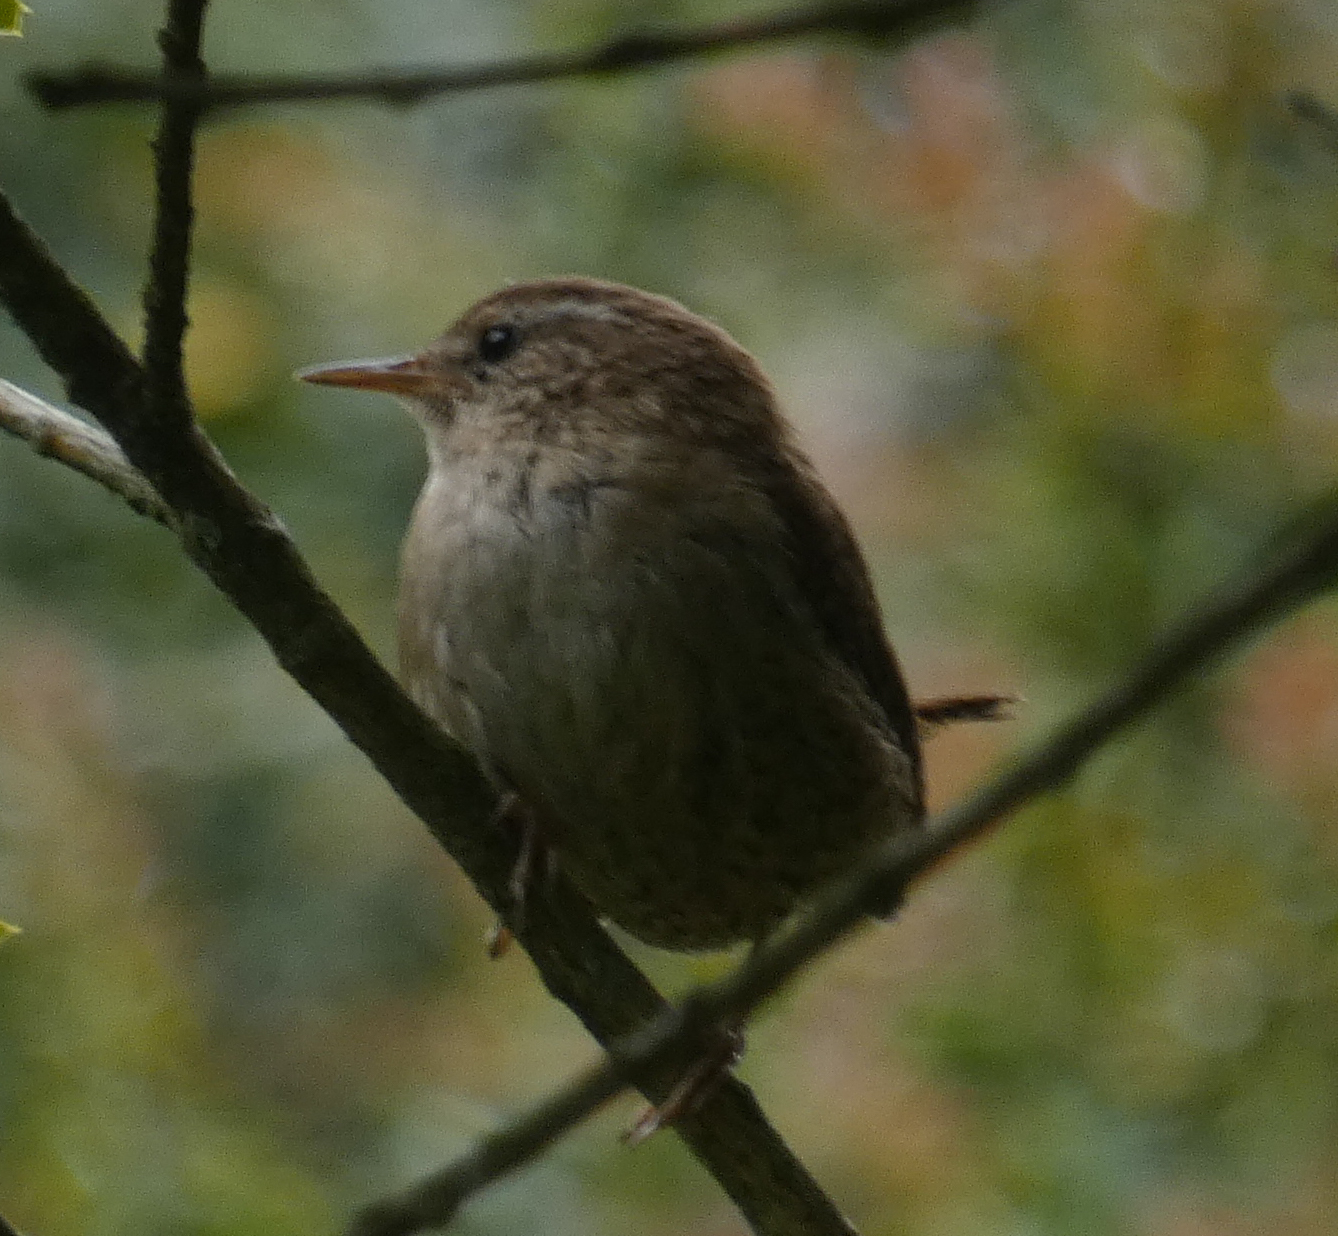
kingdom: Animalia
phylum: Chordata
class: Aves
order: Passeriformes
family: Troglodytidae
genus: Troglodytes
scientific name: Troglodytes troglodytes
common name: Eurasian wren
